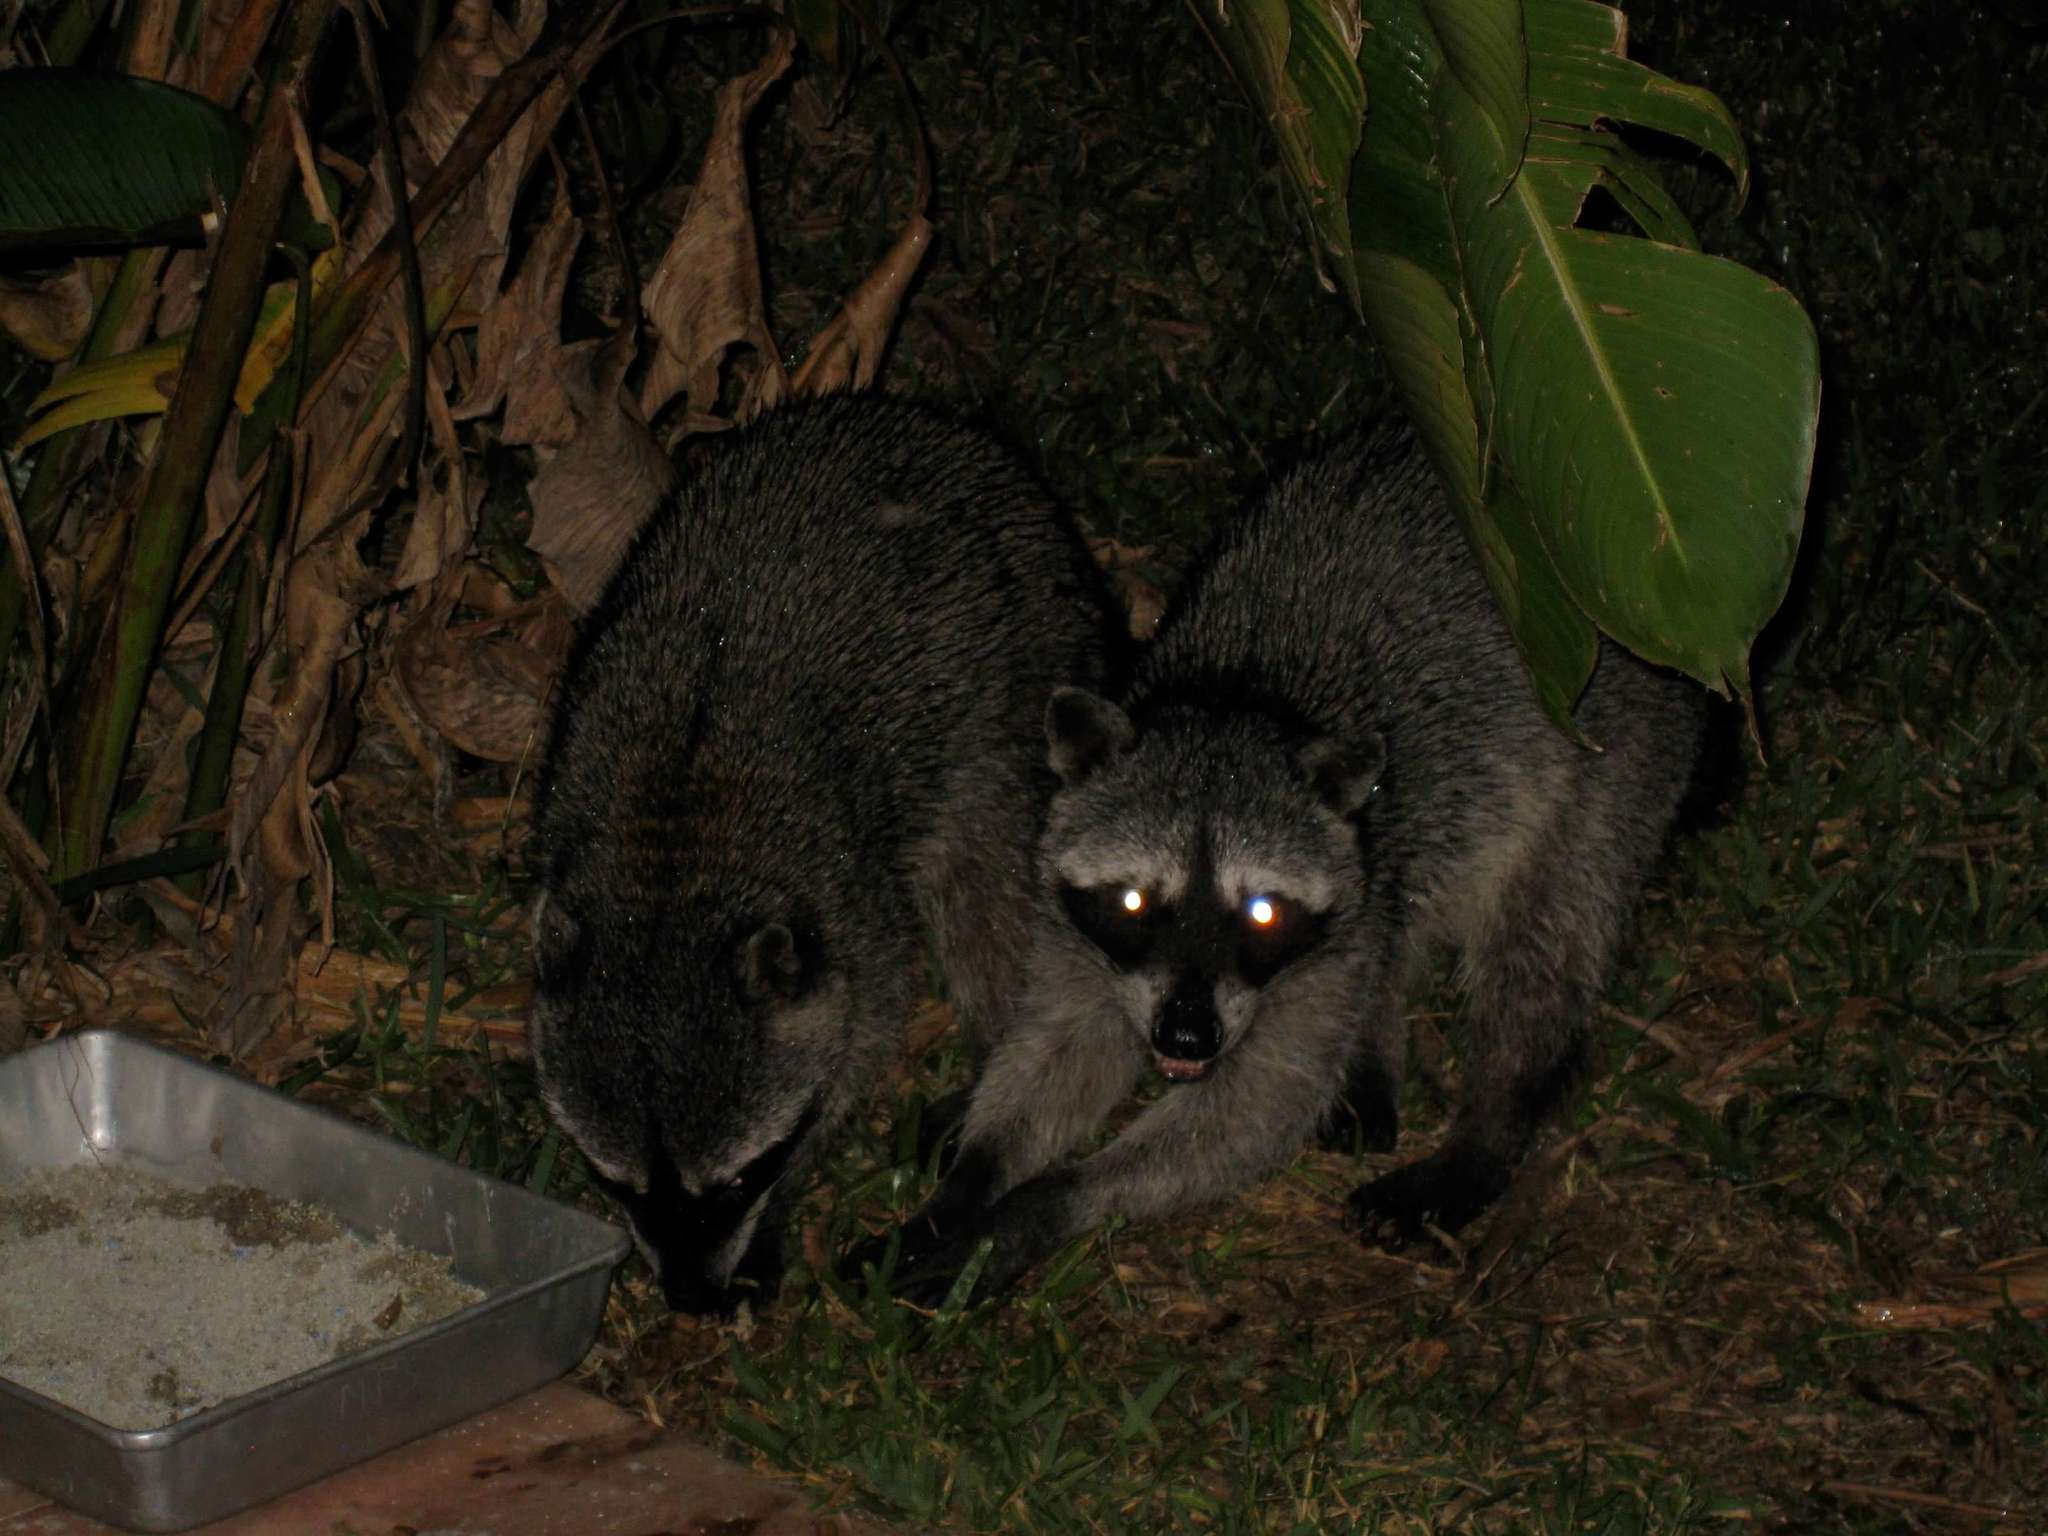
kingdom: Animalia
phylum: Chordata
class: Mammalia
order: Carnivora
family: Procyonidae
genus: Procyon
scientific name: Procyon lotor
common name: Raccoon
